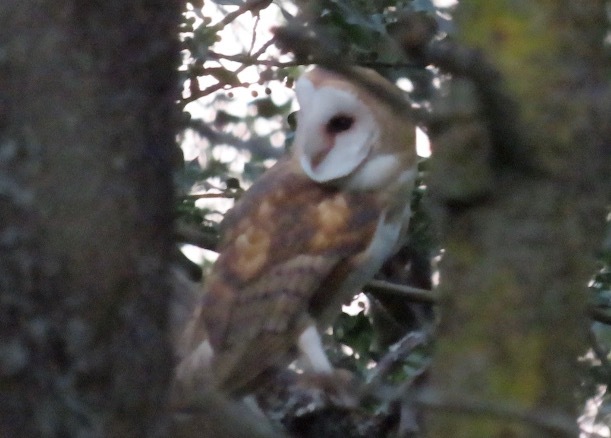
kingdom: Animalia
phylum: Chordata
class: Aves
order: Strigiformes
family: Tytonidae
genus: Tyto
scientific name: Tyto alba
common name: Barn owl
